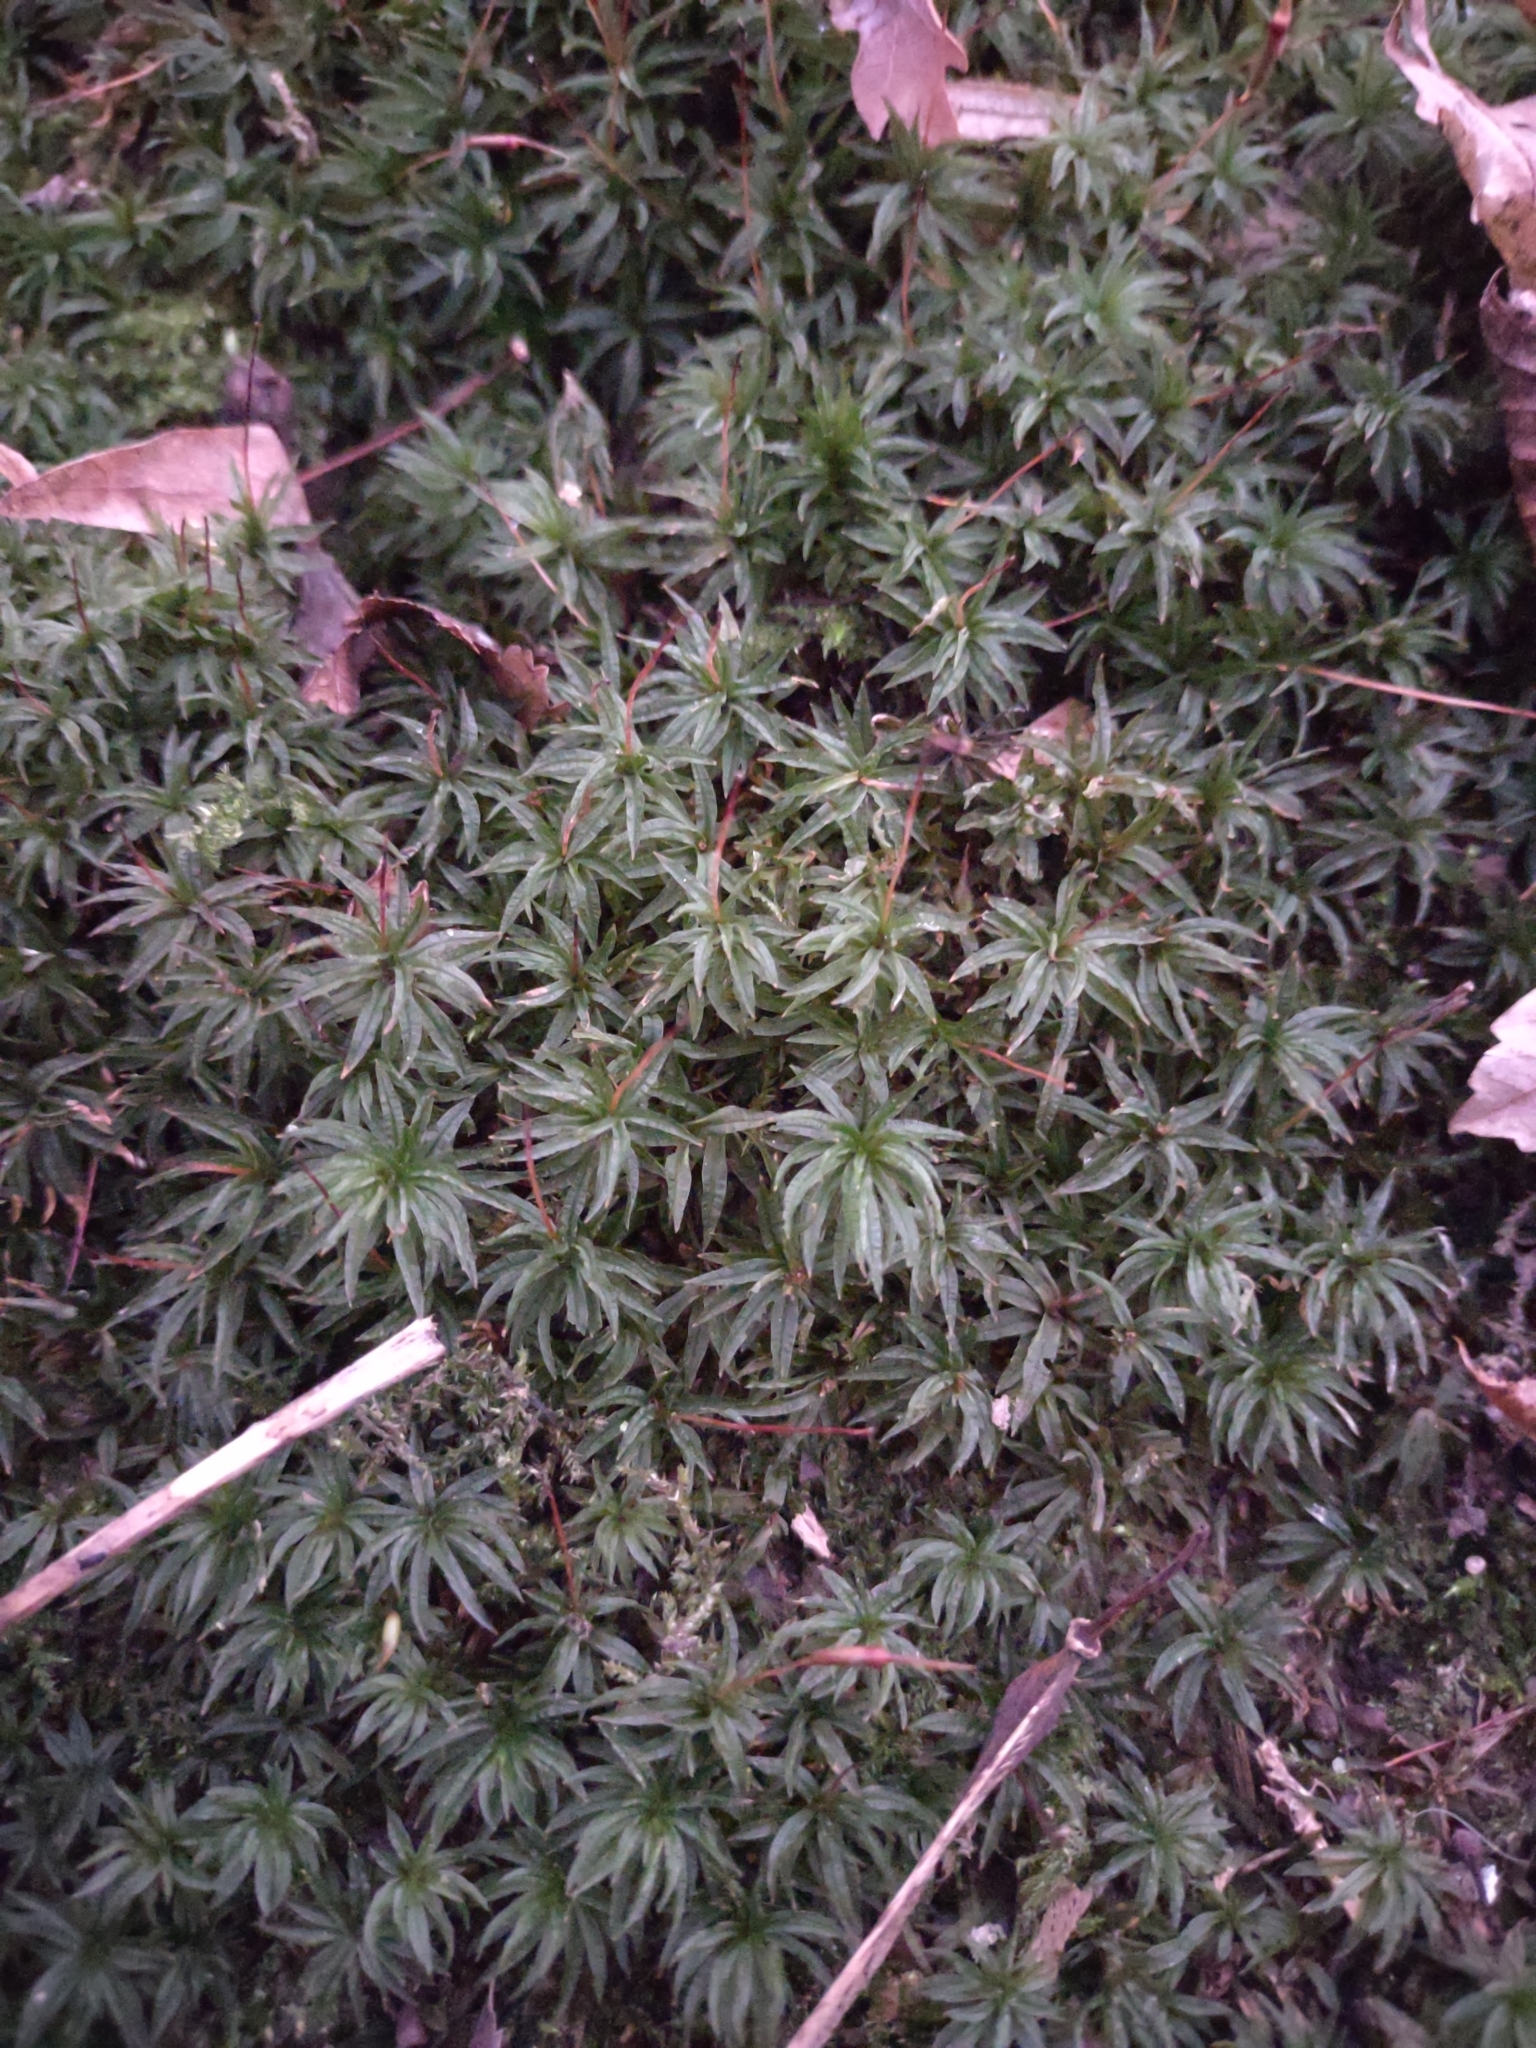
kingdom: Plantae
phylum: Bryophyta
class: Polytrichopsida
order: Polytrichales
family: Polytrichaceae
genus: Atrichum
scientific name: Atrichum undulatum
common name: Common smoothcap
